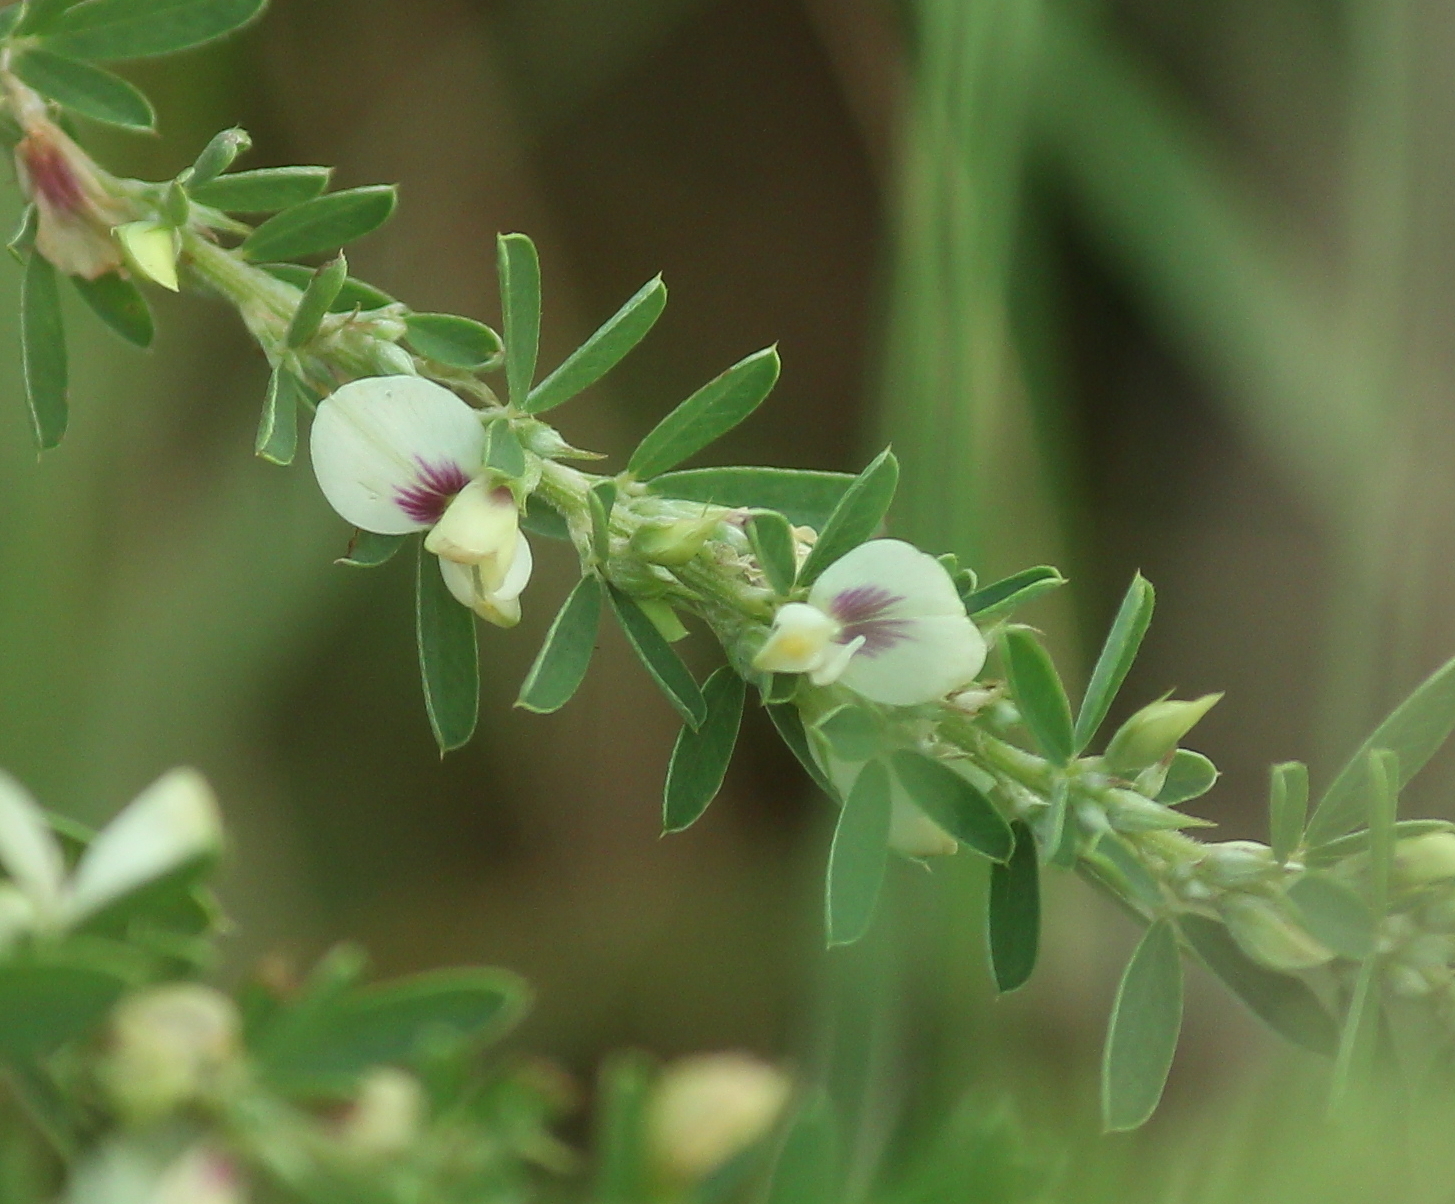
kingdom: Plantae
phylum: Tracheophyta
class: Magnoliopsida
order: Fabales
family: Fabaceae
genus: Lespedeza
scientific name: Lespedeza cuneata
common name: Chinese bush-clover
